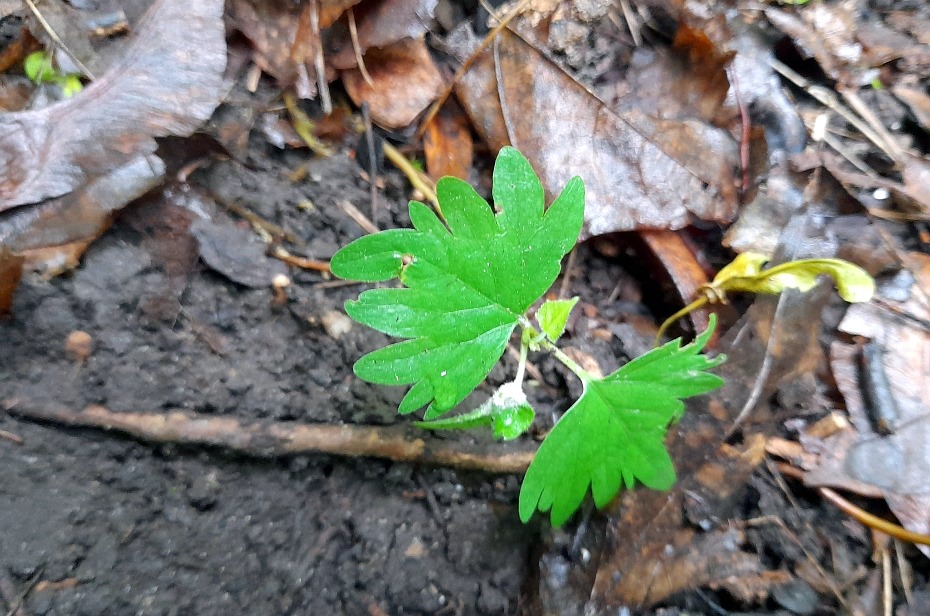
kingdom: Plantae
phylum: Tracheophyta
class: Magnoliopsida
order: Malvales
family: Malvaceae
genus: Tilia
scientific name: Tilia cordata
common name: Small-leaved lime
